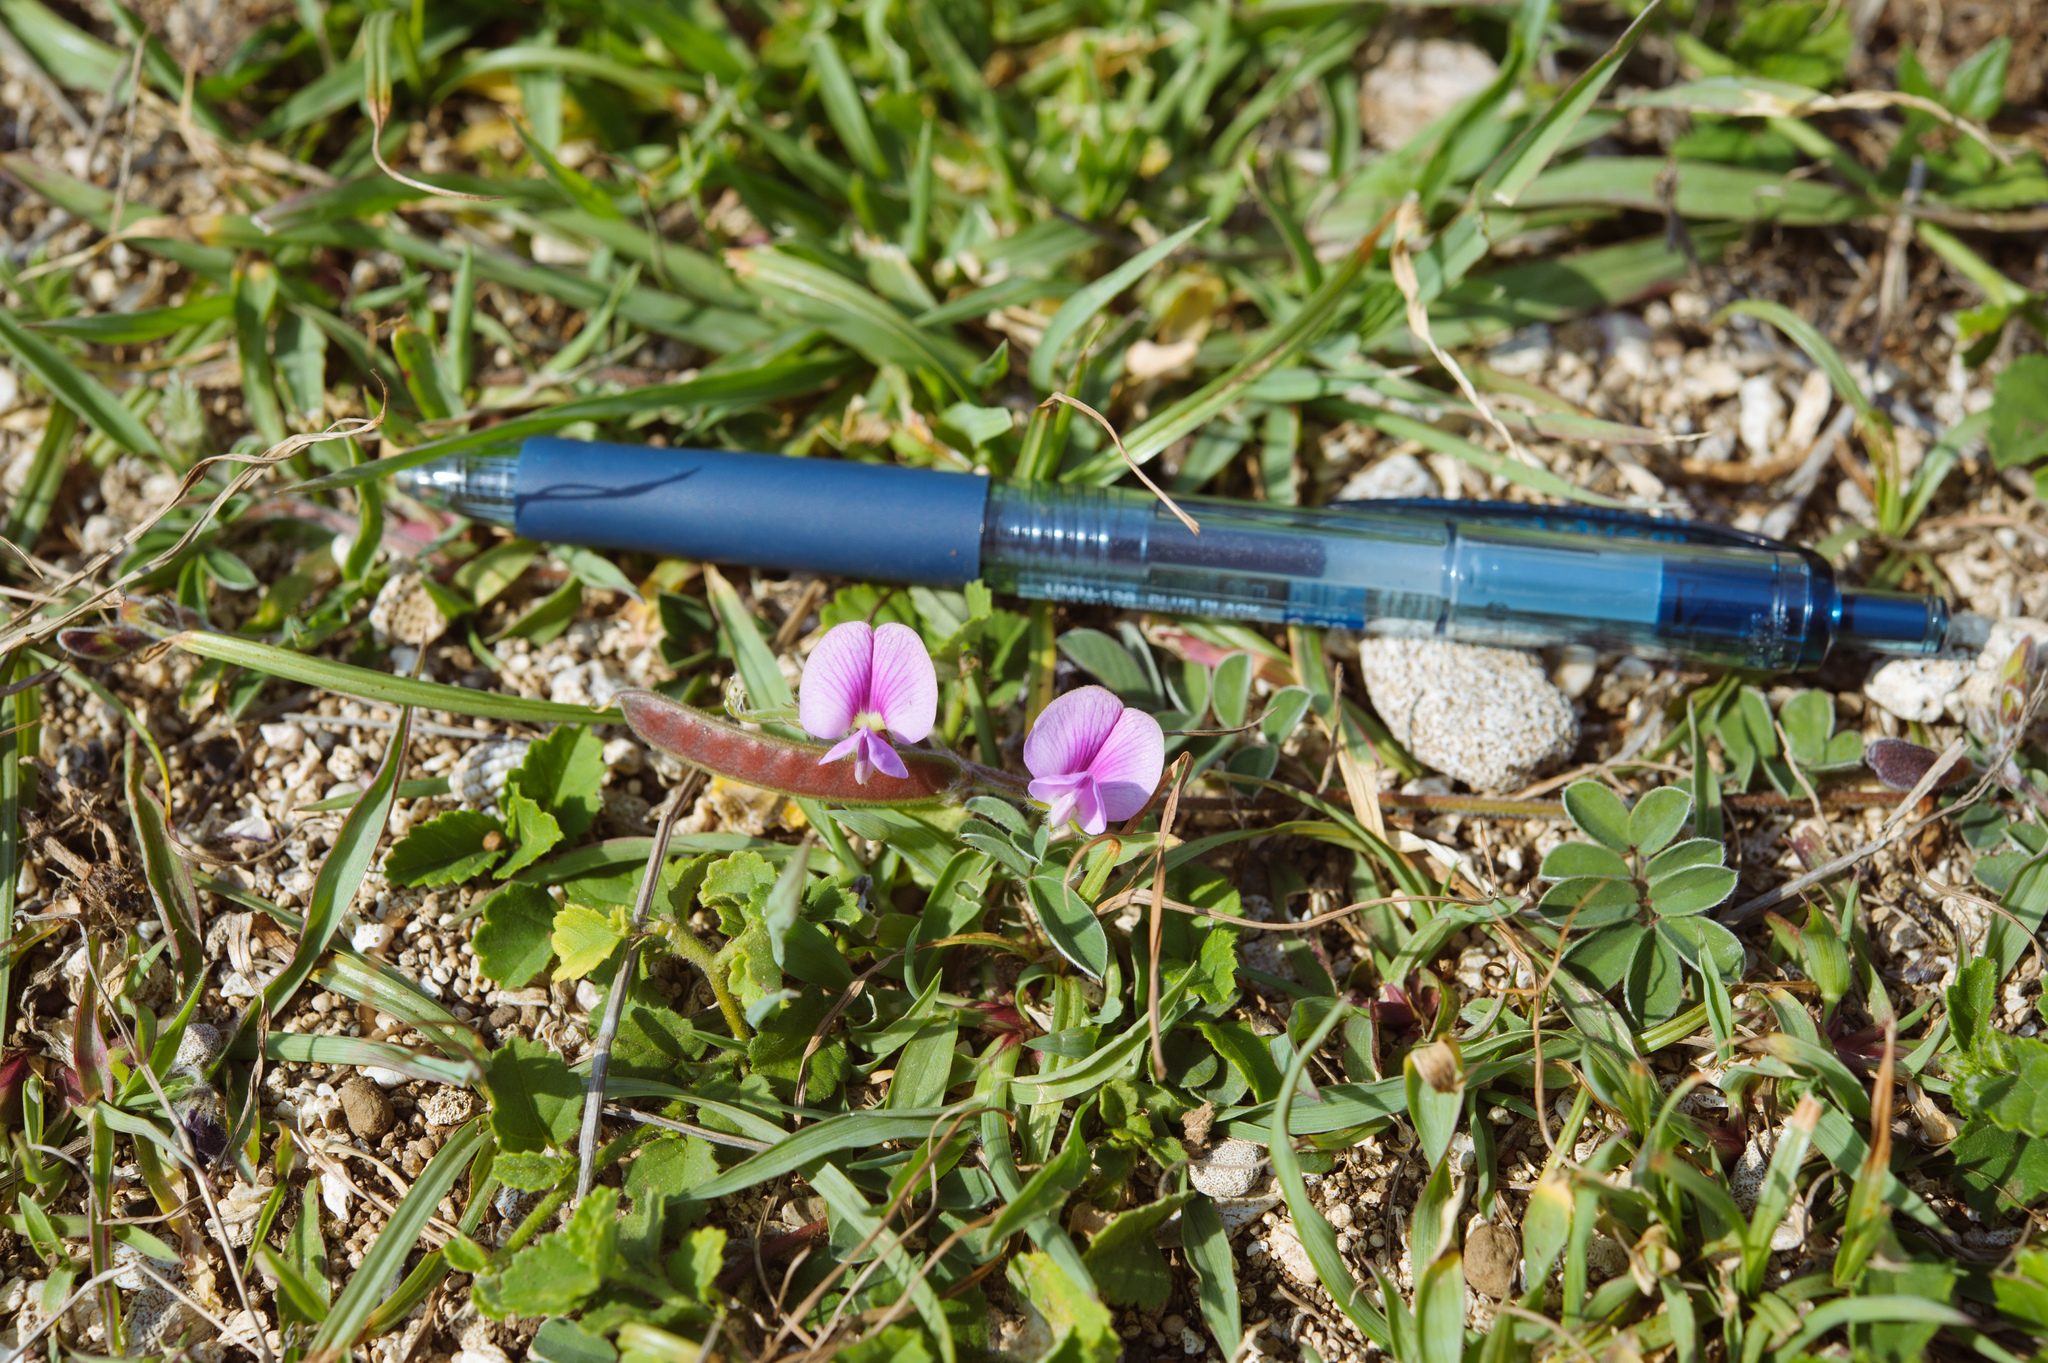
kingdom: Plantae
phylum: Tracheophyta
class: Magnoliopsida
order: Fabales
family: Fabaceae
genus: Tephrosia
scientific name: Tephrosia obovata
